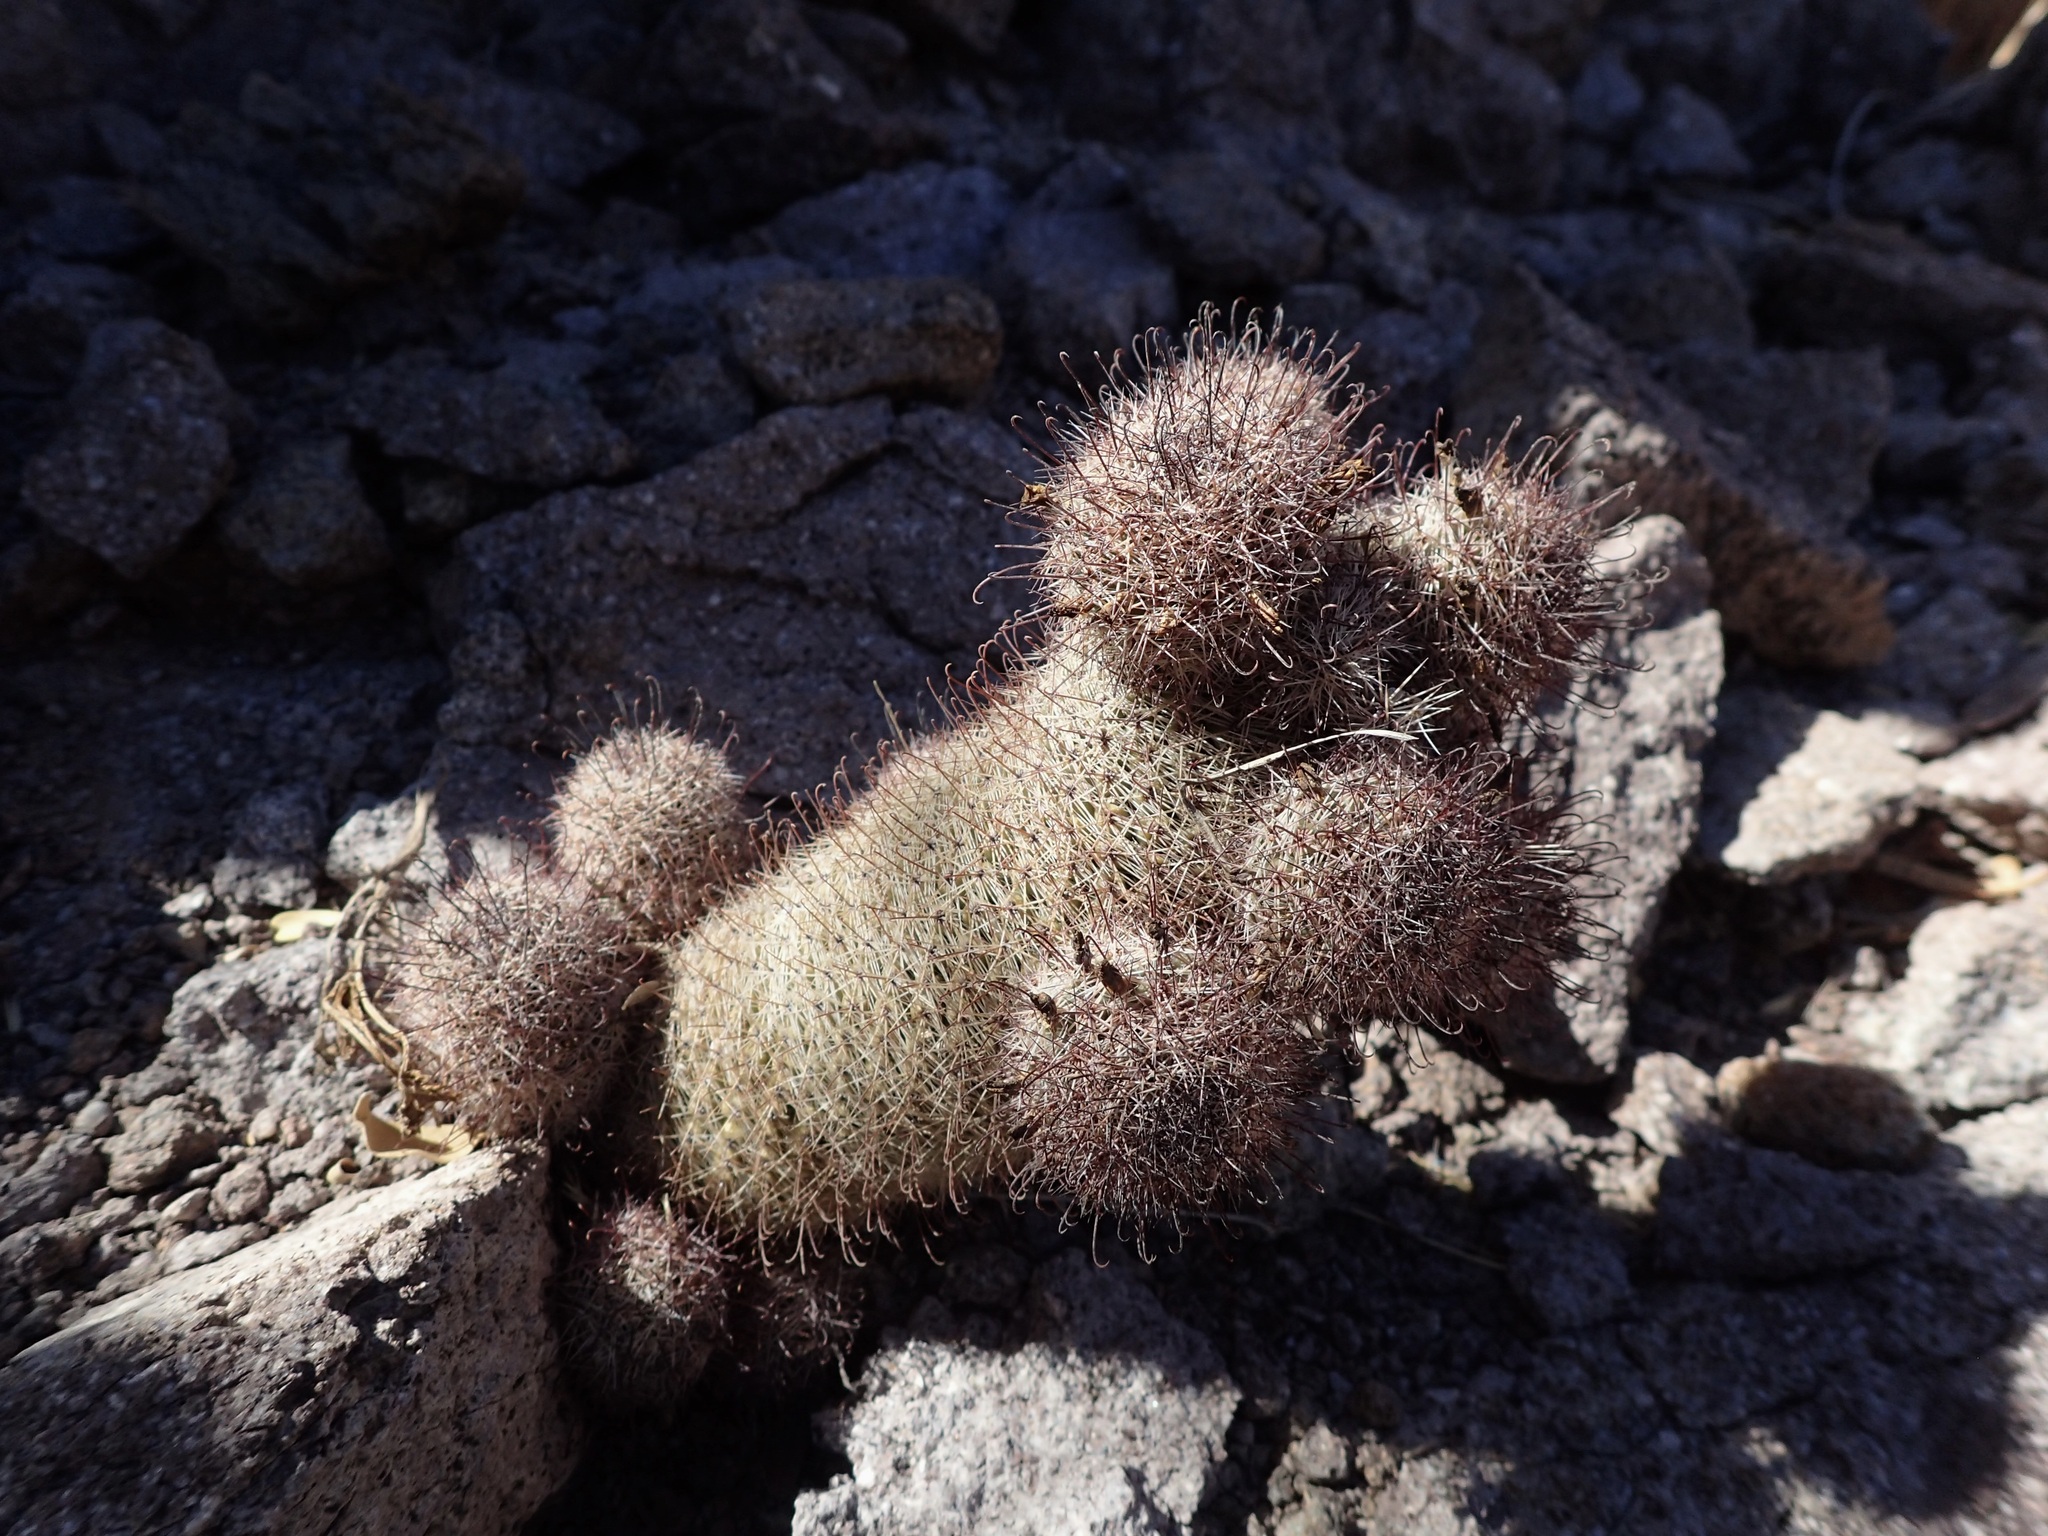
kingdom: Plantae
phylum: Tracheophyta
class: Magnoliopsida
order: Caryophyllales
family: Cactaceae
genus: Cochemiea
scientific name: Cochemiea dioica
